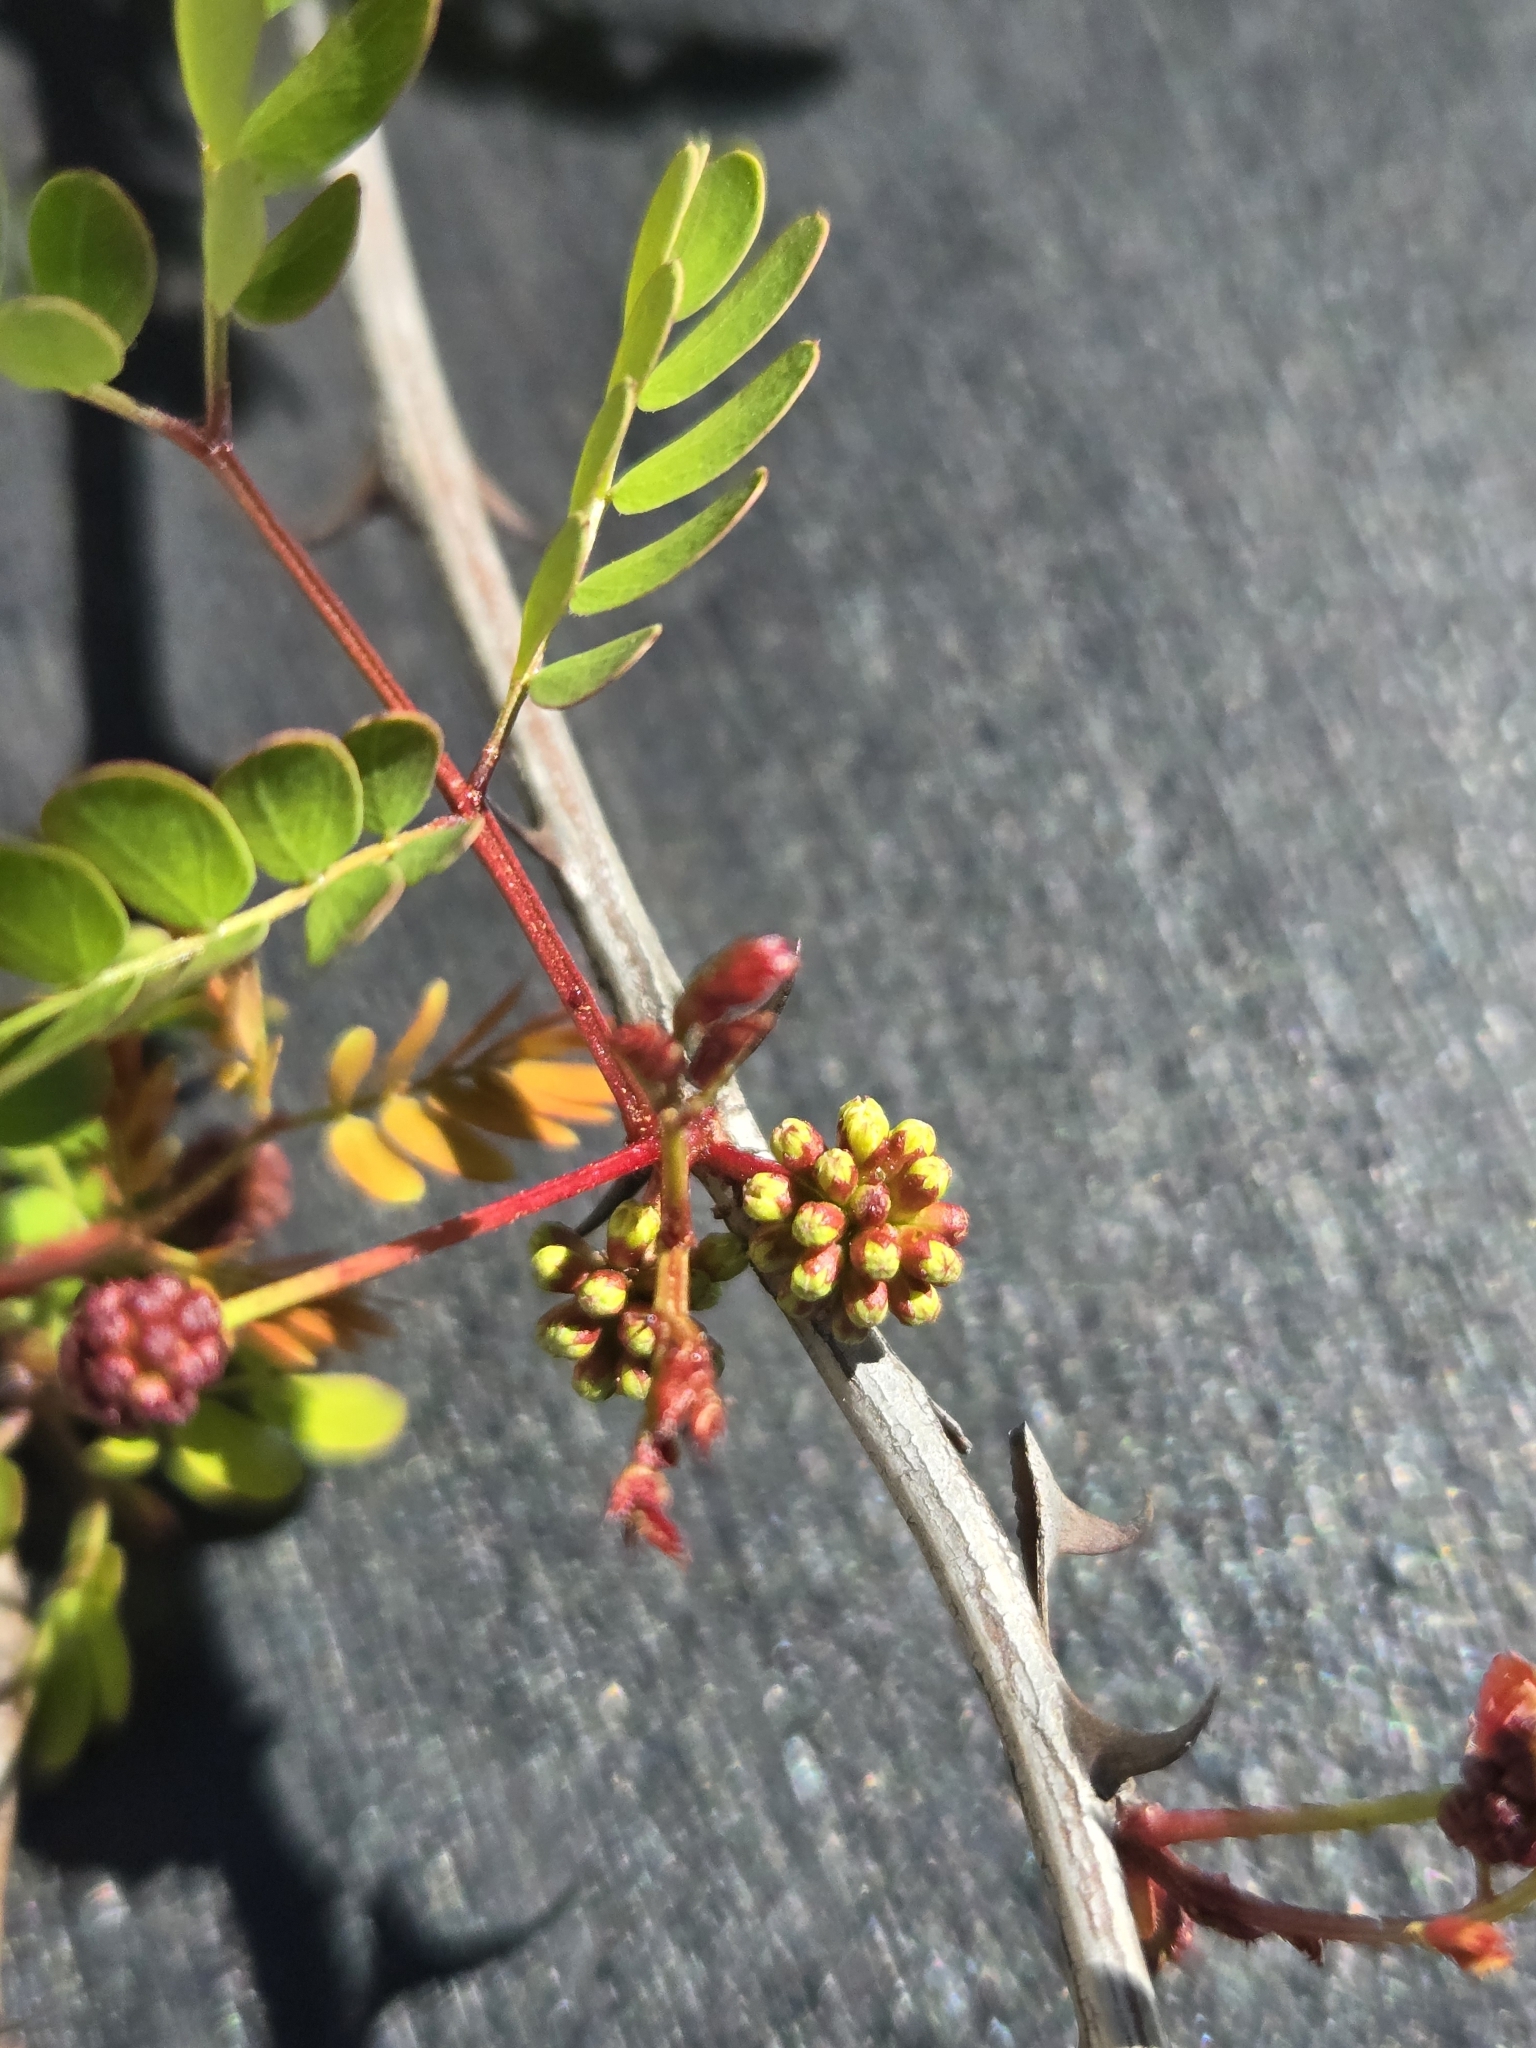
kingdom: Plantae
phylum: Tracheophyta
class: Magnoliopsida
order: Fabales
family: Fabaceae
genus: Senegalia
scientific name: Senegalia roemeriana
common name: Roemer's acacia
